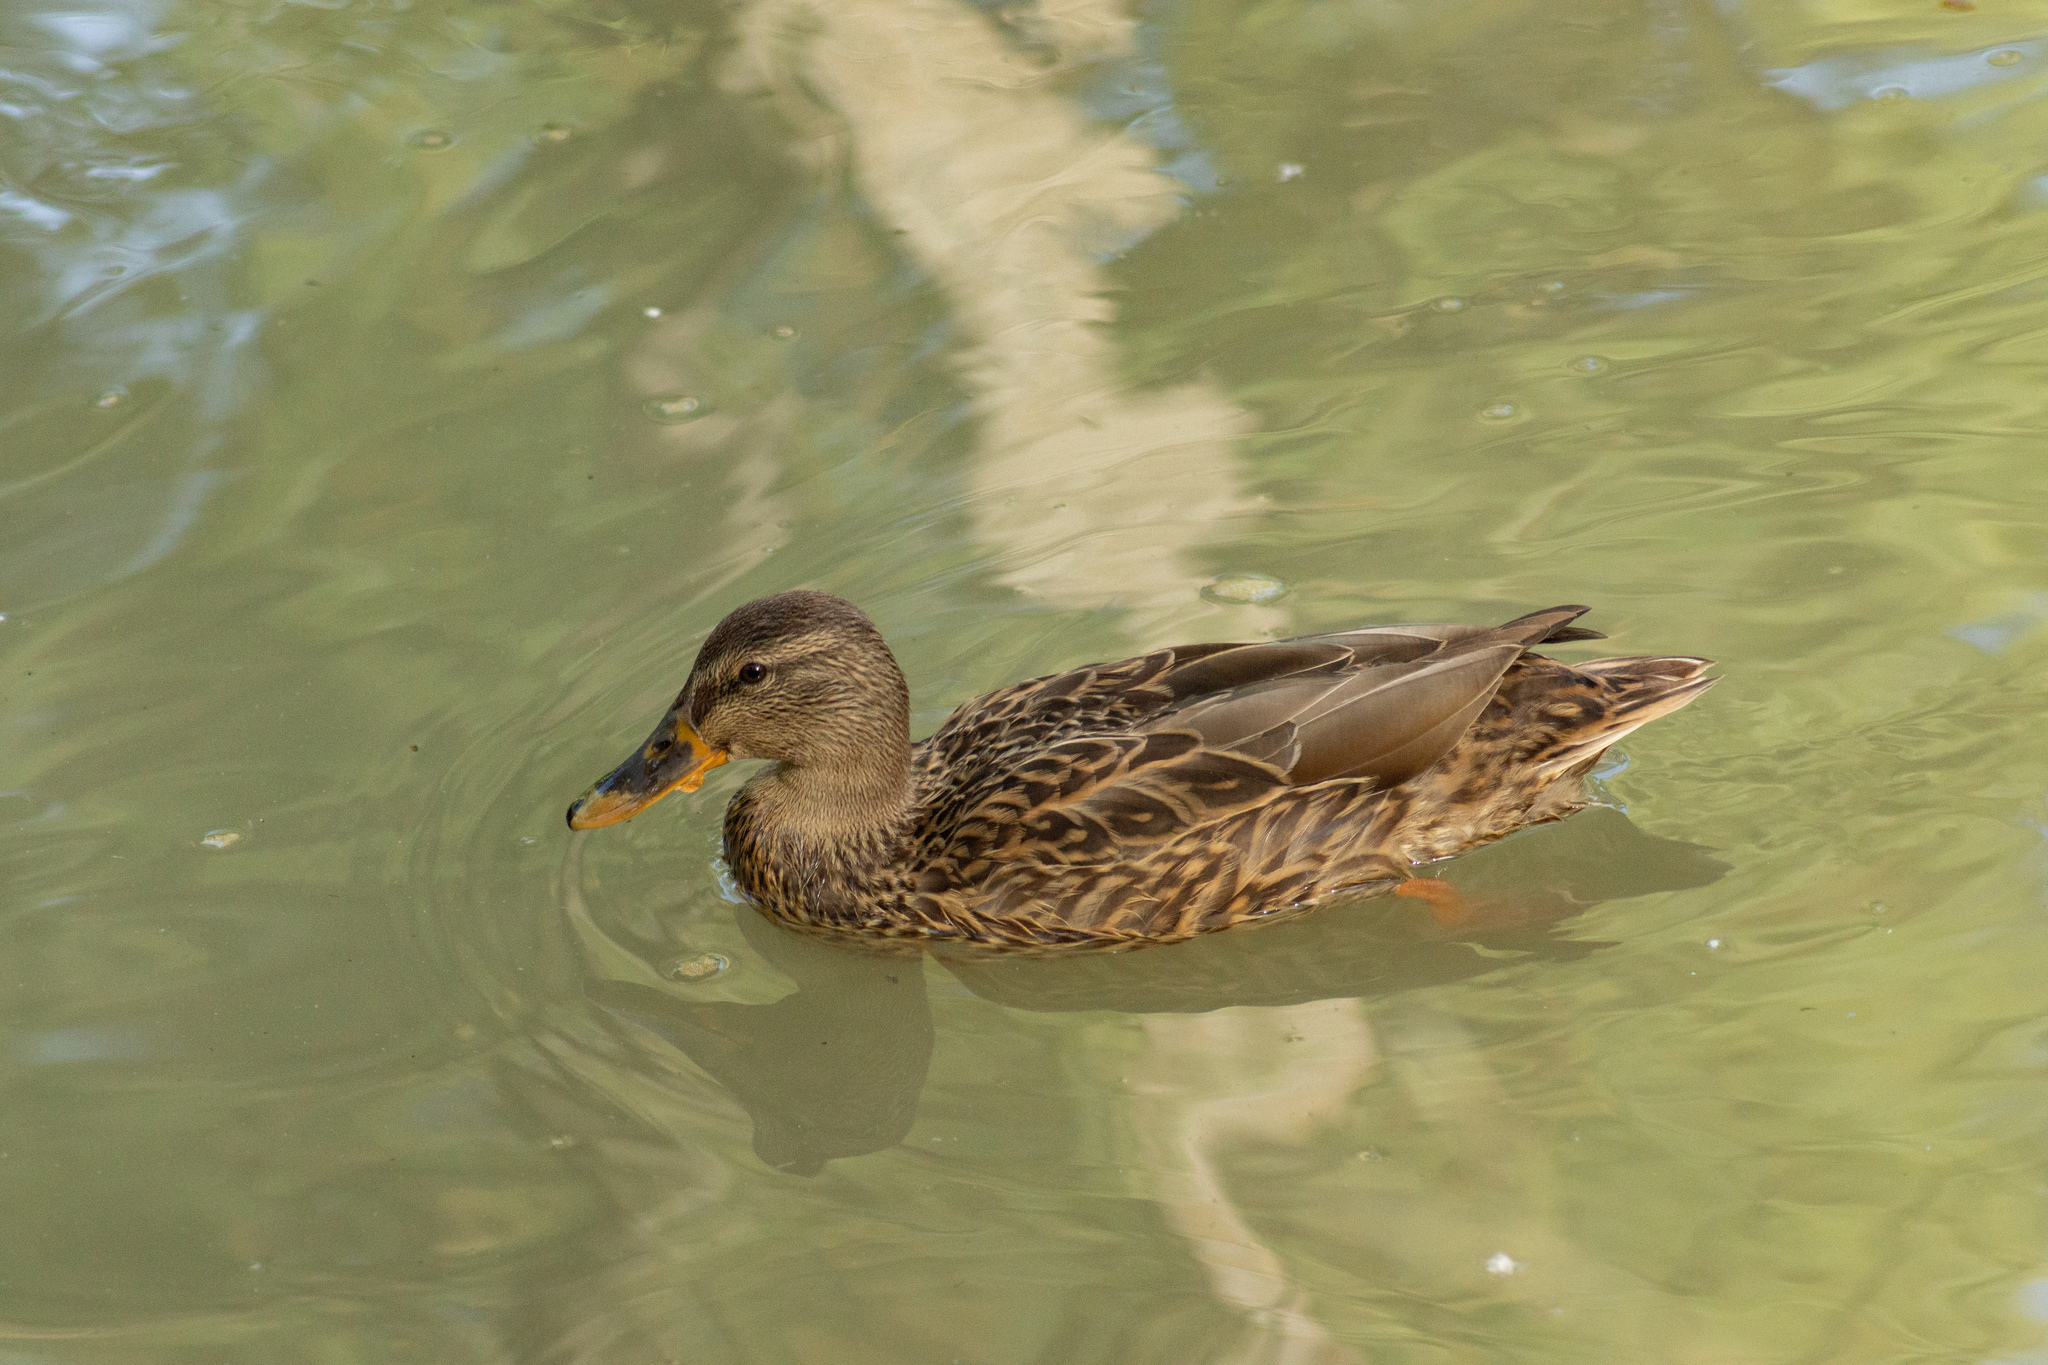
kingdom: Animalia
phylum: Chordata
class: Aves
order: Anseriformes
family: Anatidae
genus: Anas
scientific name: Anas platyrhynchos
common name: Mallard
